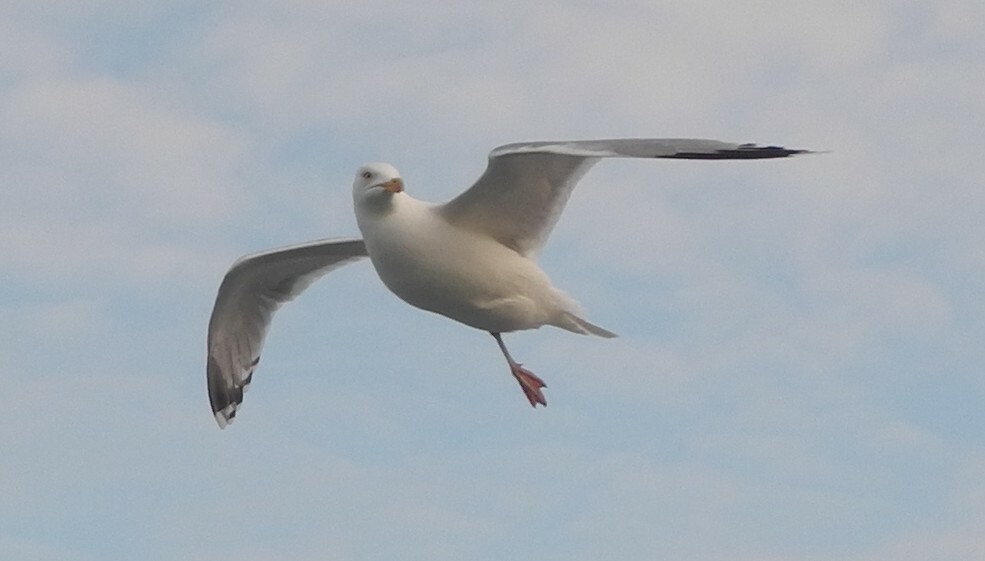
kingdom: Animalia
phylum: Chordata
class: Aves
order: Charadriiformes
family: Laridae
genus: Larus
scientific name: Larus argentatus
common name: Herring gull
